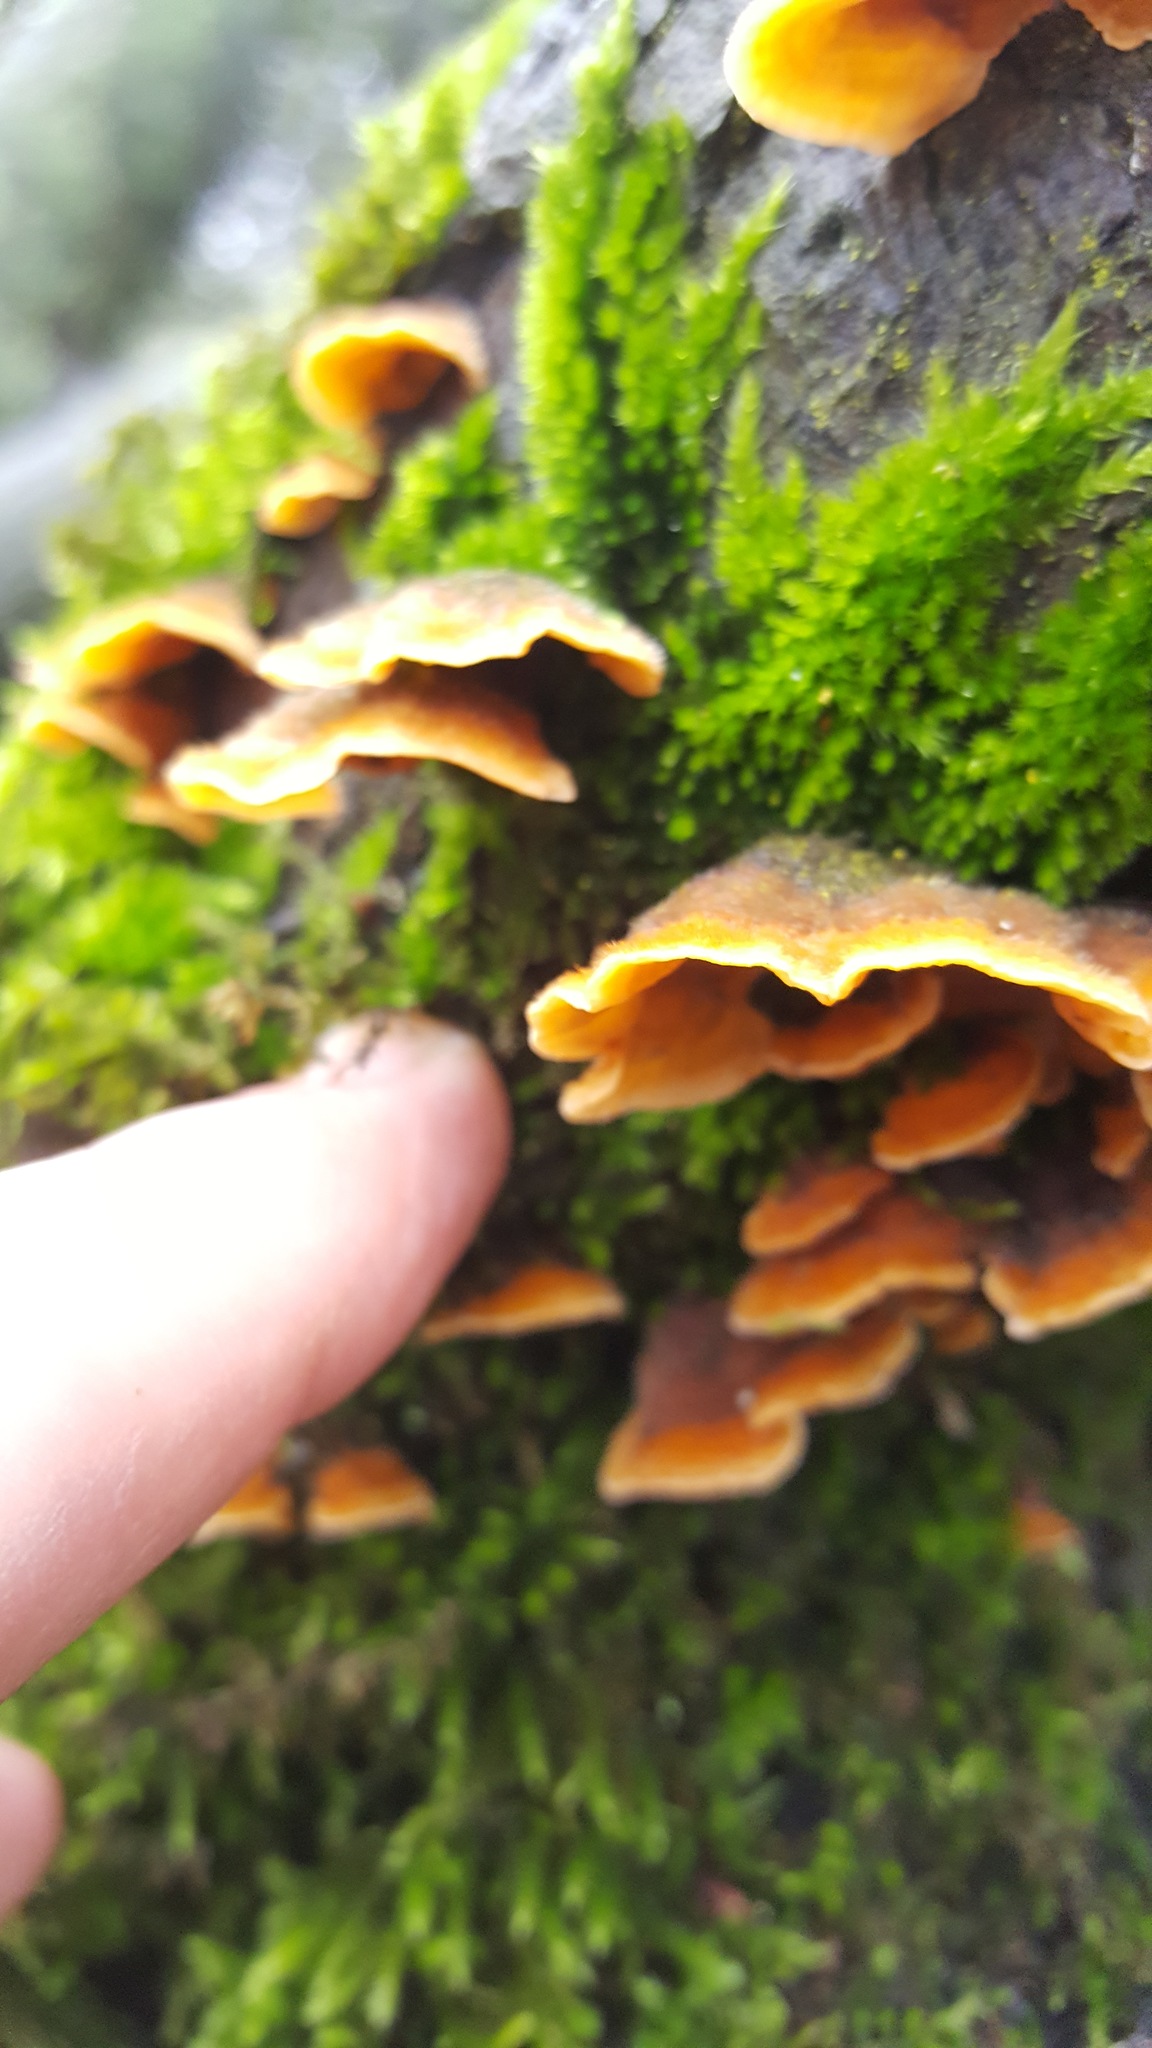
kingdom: Fungi
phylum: Basidiomycota
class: Agaricomycetes
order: Russulales
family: Stereaceae
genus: Stereum
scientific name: Stereum hirsutum
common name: Hairy curtain crust
